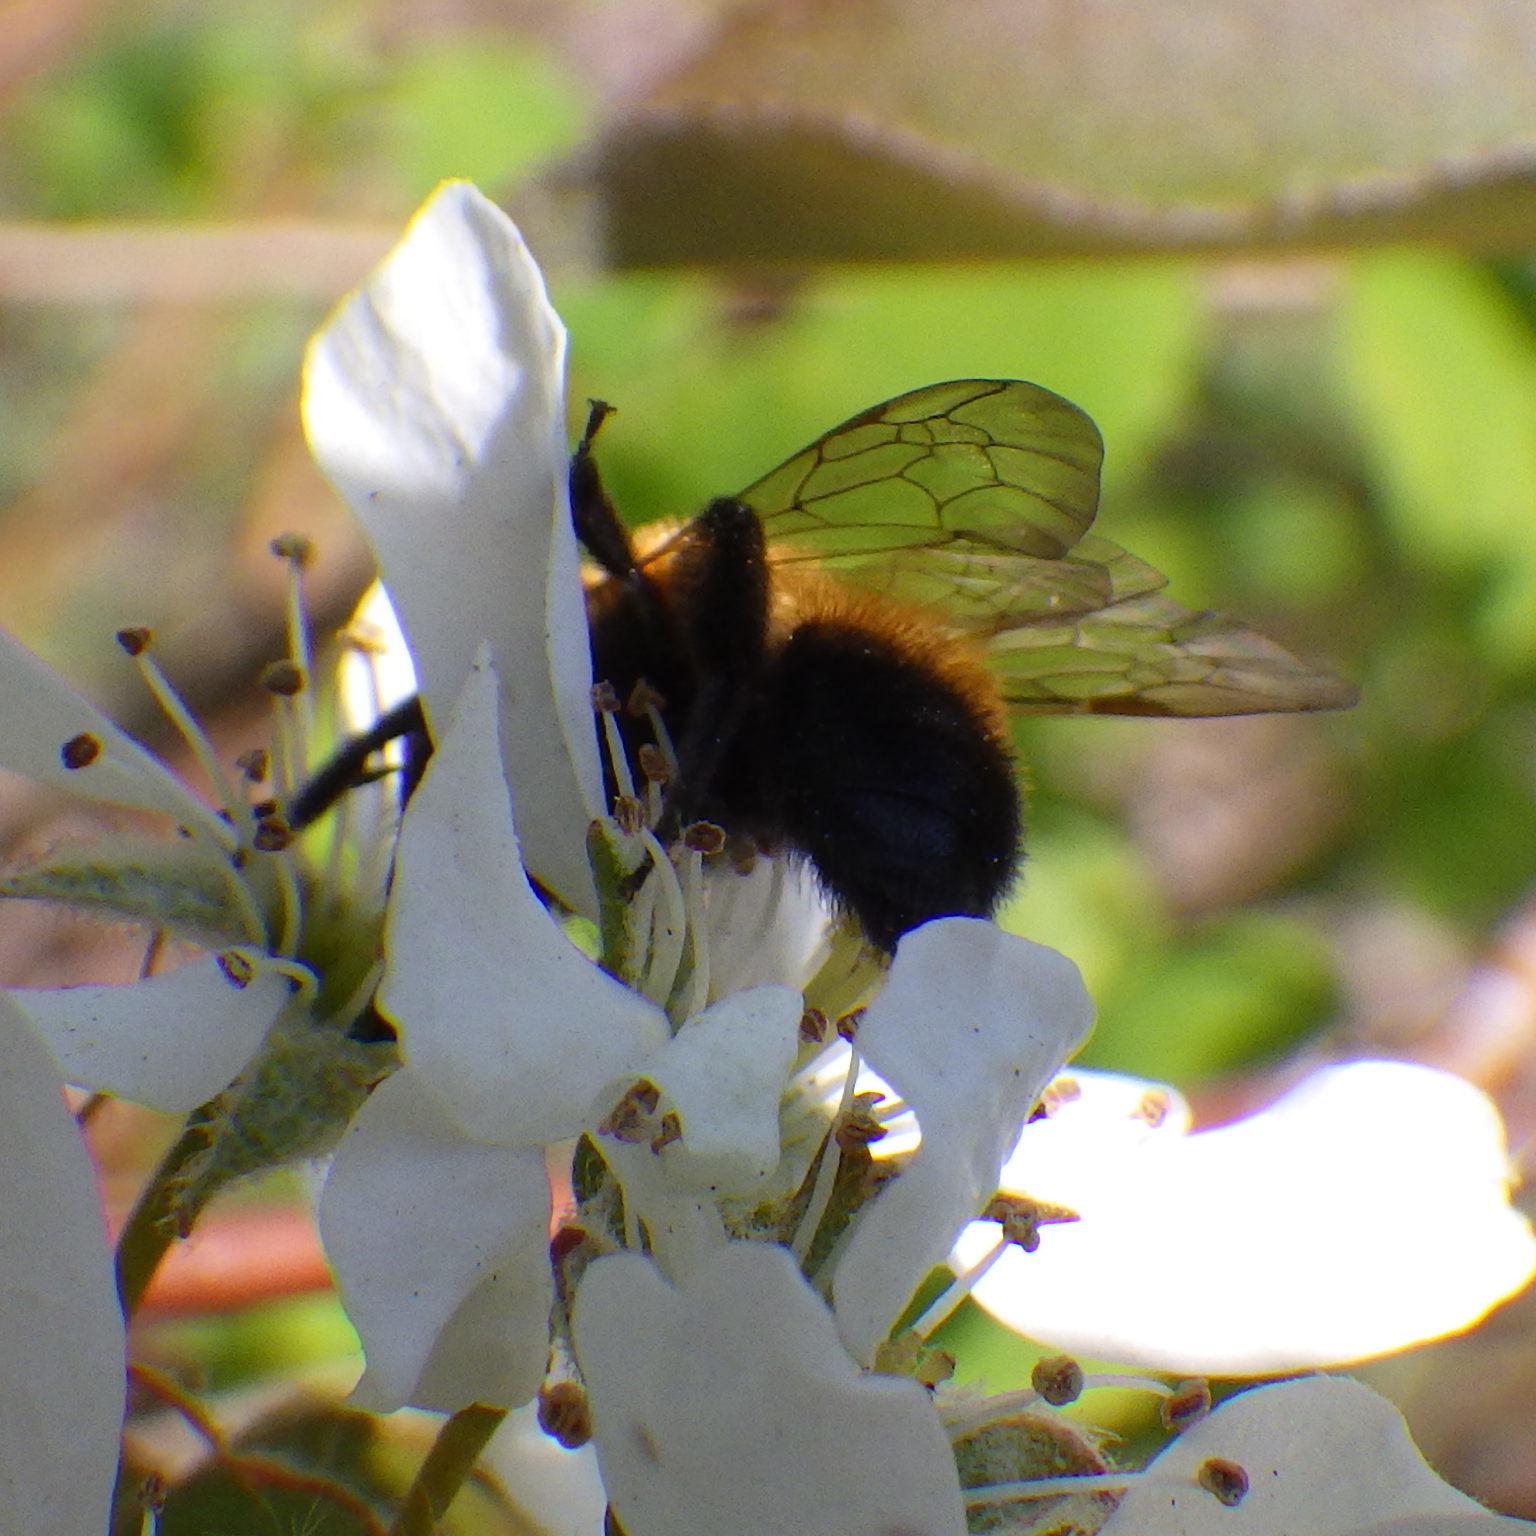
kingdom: Animalia
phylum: Arthropoda
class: Insecta
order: Hymenoptera
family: Andrenidae
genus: Andrena
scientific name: Andrena milwaukeensis
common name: Milwaukee mining bee
